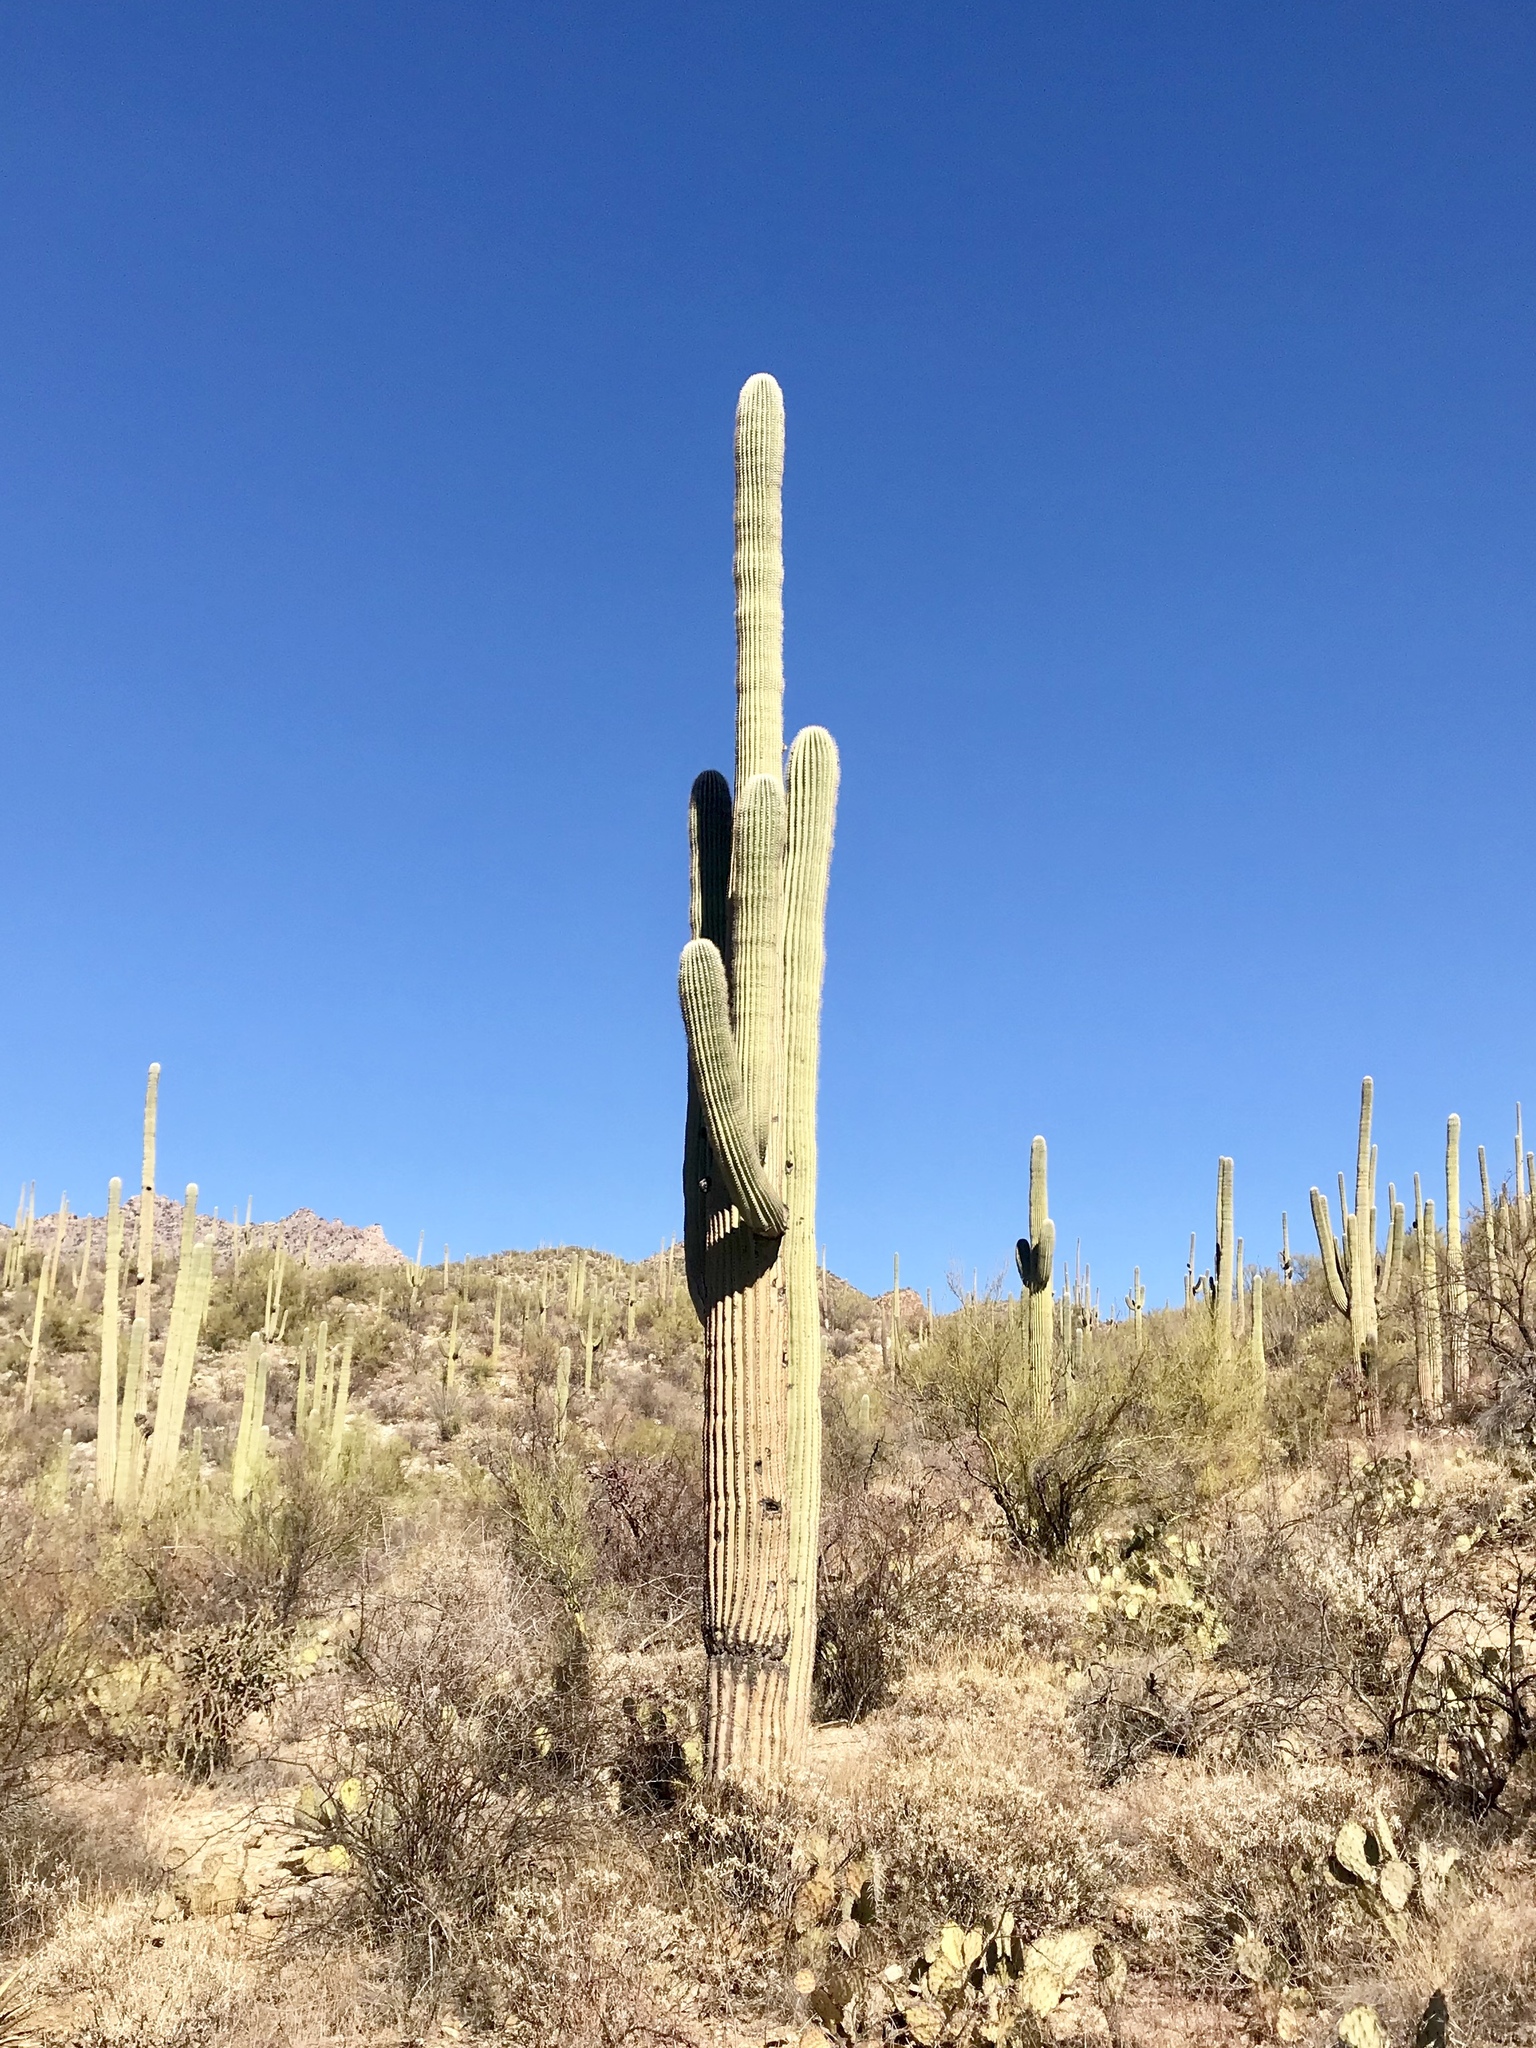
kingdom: Plantae
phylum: Tracheophyta
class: Magnoliopsida
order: Caryophyllales
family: Cactaceae
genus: Carnegiea
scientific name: Carnegiea gigantea
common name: Saguaro
